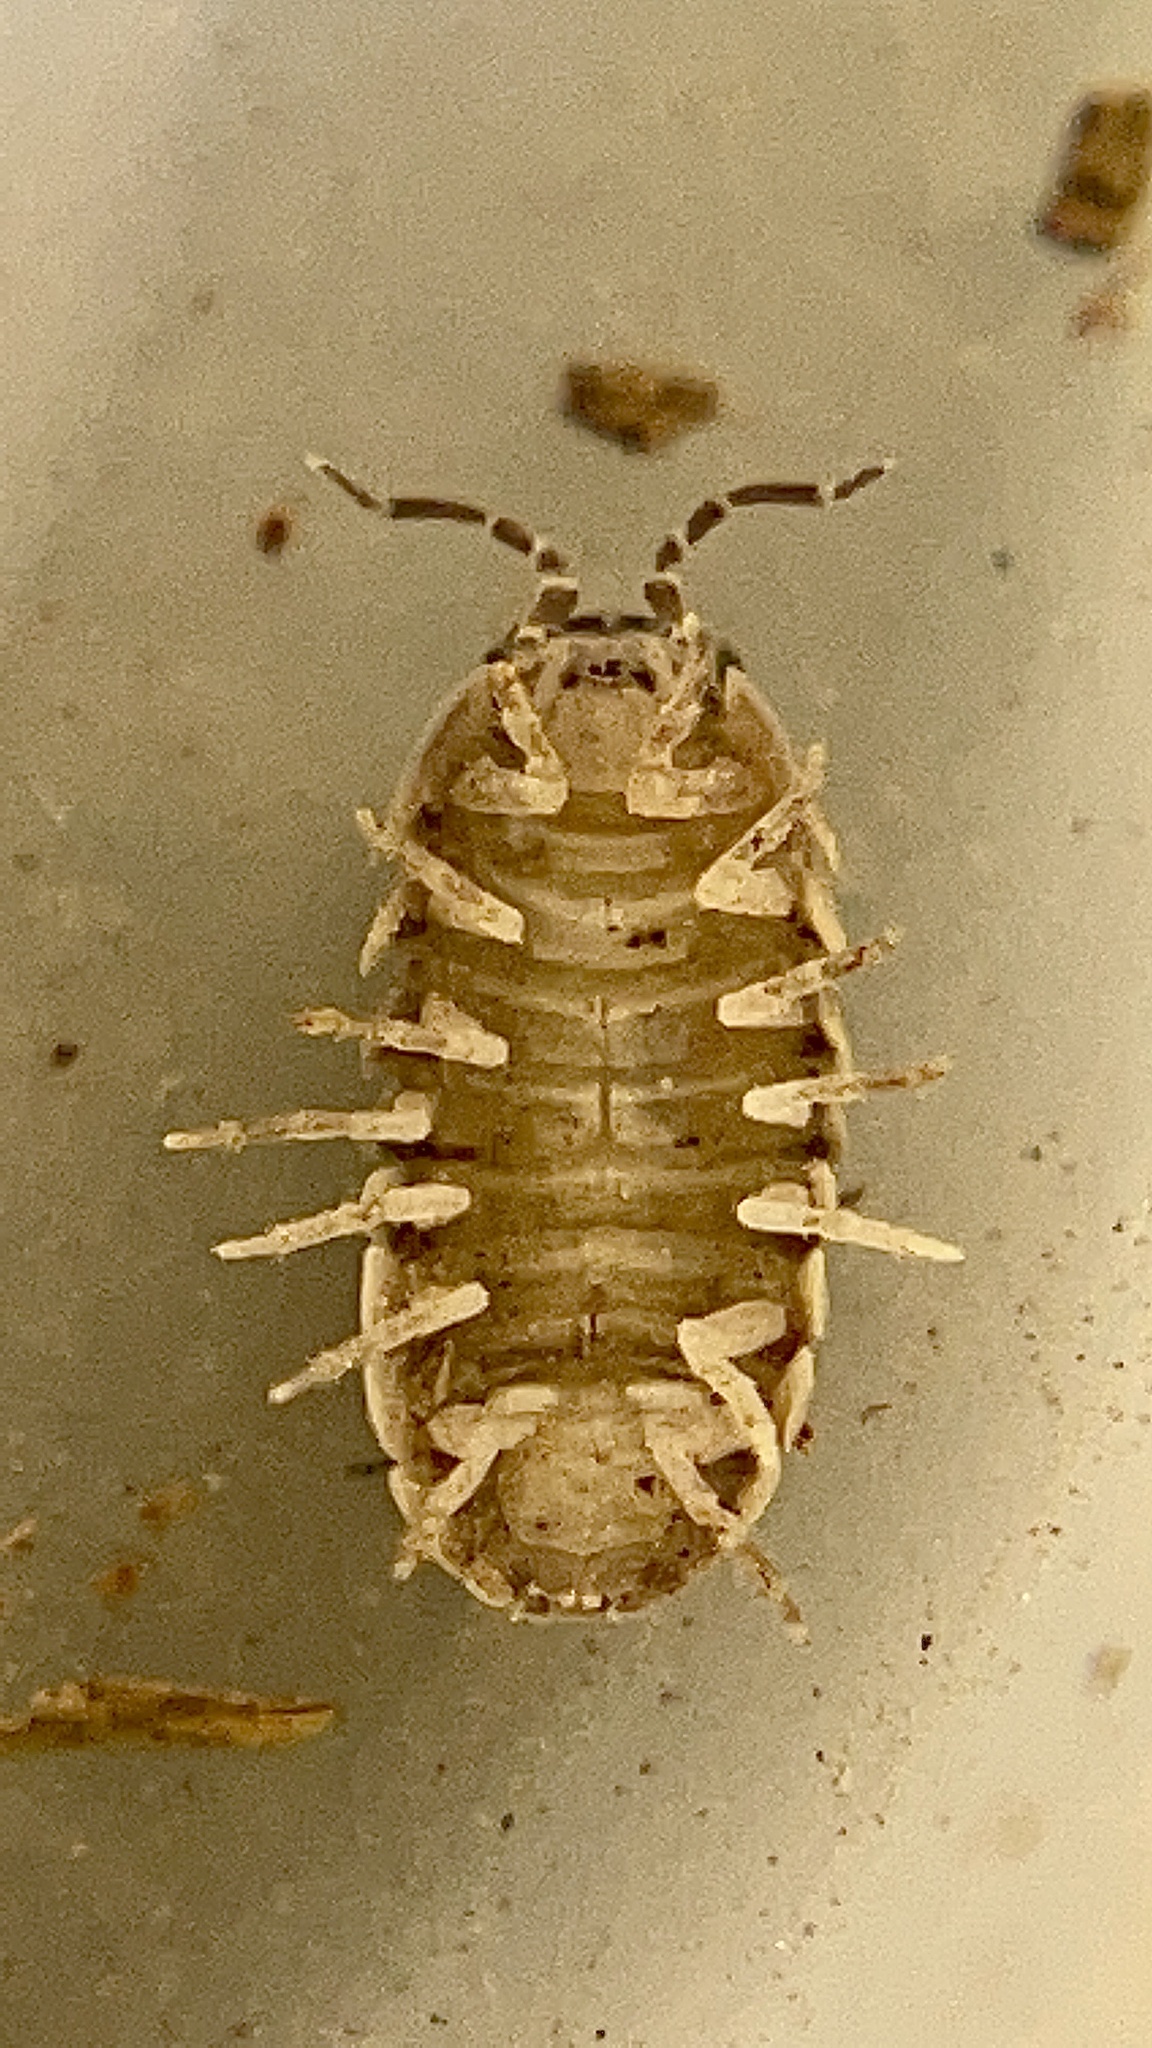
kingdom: Animalia
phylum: Arthropoda
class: Malacostraca
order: Isopoda
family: Armadillidiidae
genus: Armadillidium
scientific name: Armadillidium vulgare
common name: Common pill woodlouse
